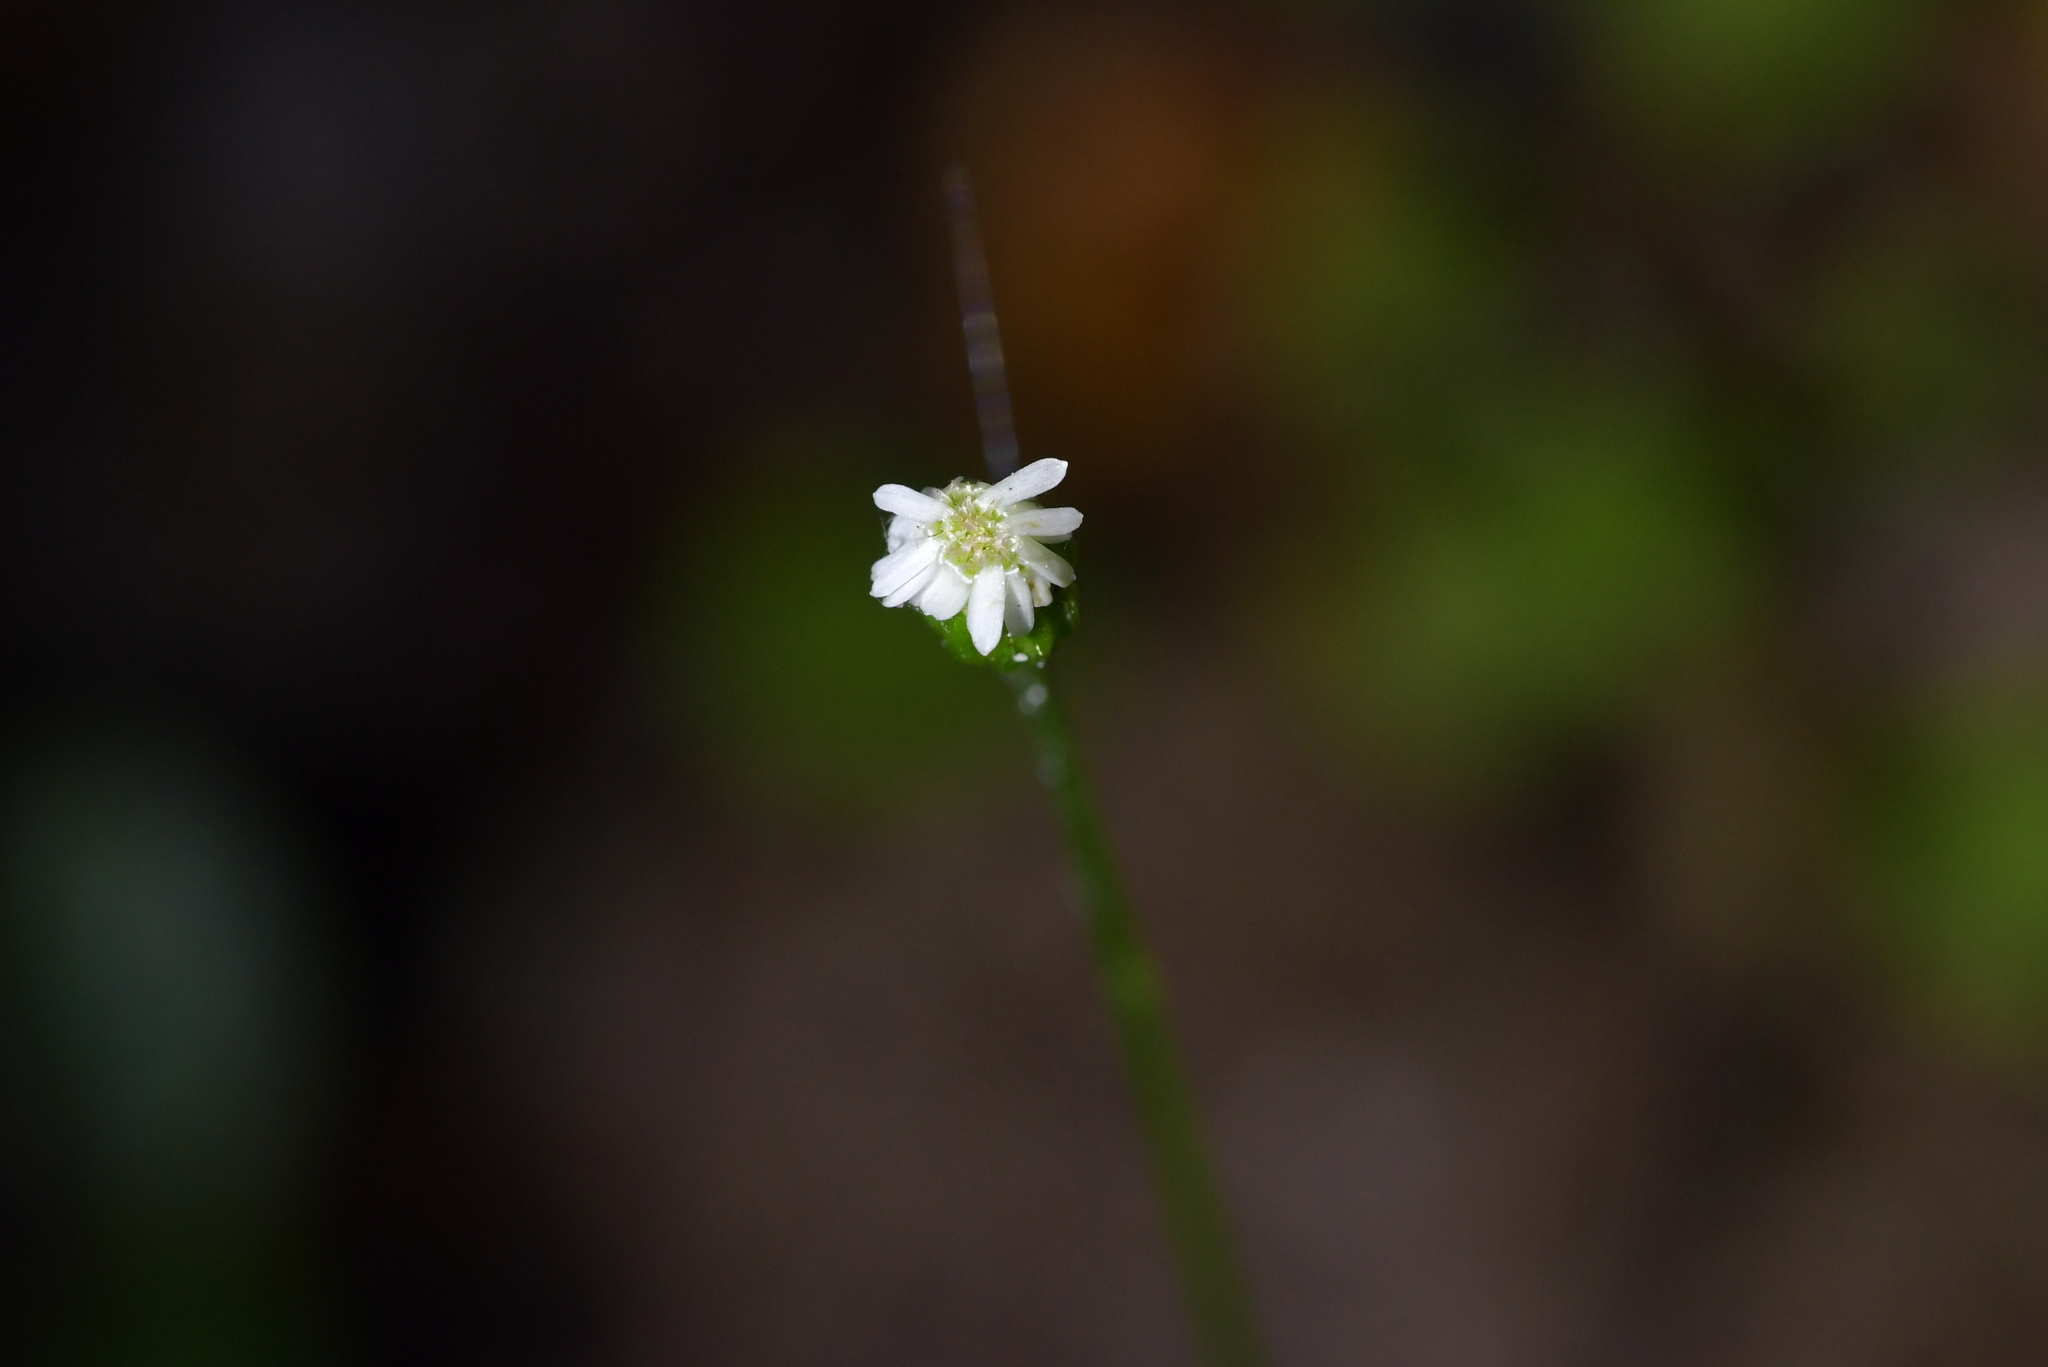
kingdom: Plantae
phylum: Tracheophyta
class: Magnoliopsida
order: Asterales
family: Asteraceae
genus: Lagenophora
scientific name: Lagenophora strangulata
